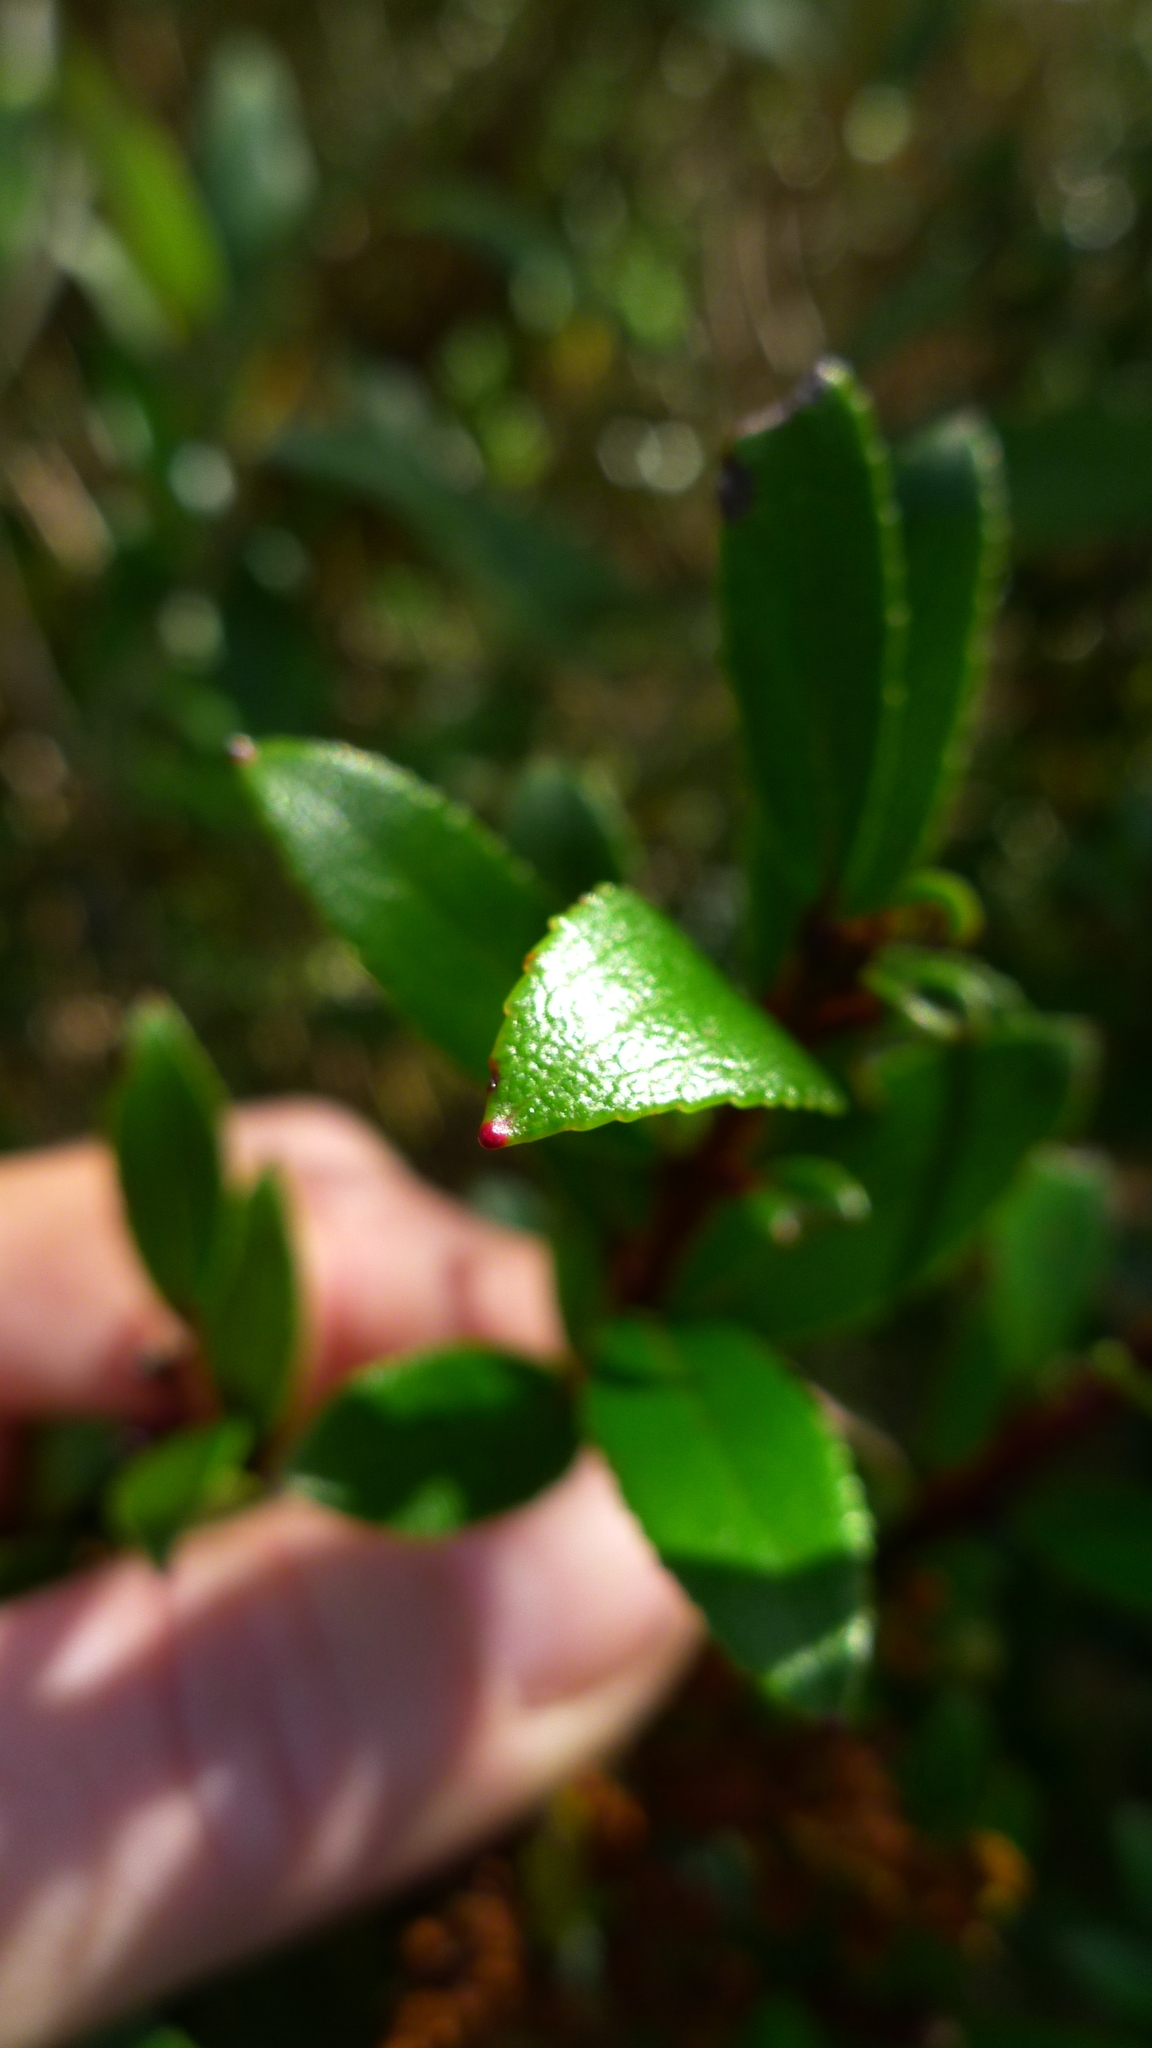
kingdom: Plantae
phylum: Tracheophyta
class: Magnoliopsida
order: Ericales
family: Ericaceae
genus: Gaultheria
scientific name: Gaultheria rupestris
